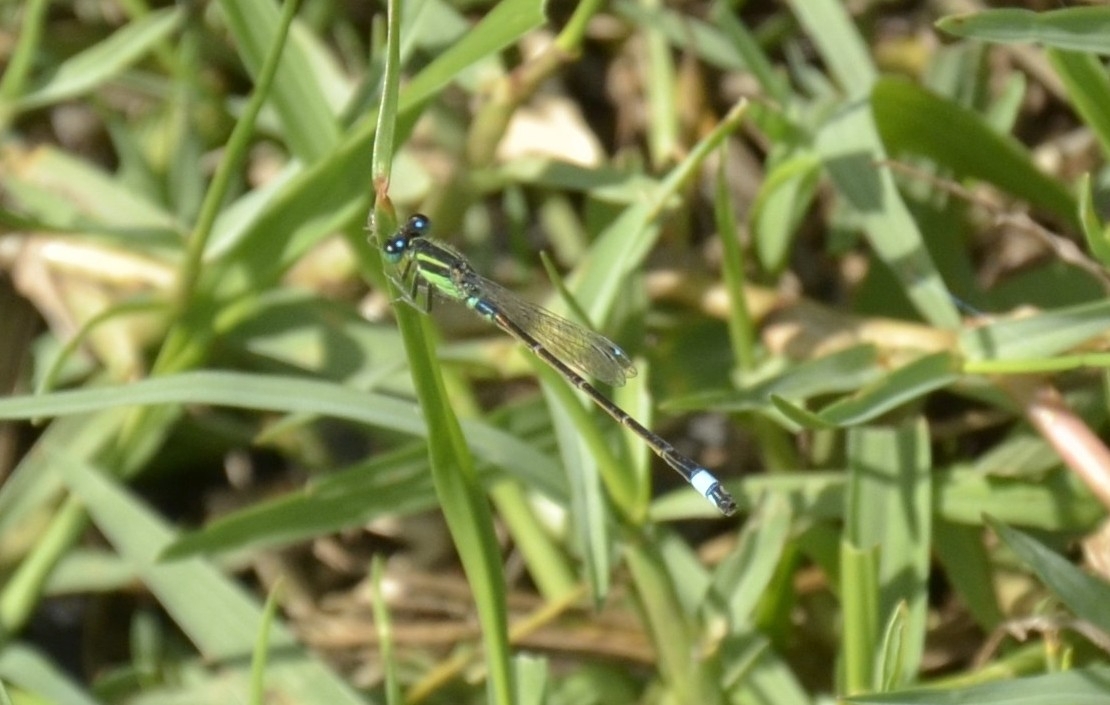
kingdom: Animalia
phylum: Arthropoda
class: Insecta
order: Odonata
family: Coenagrionidae
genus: Ischnura
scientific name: Ischnura senegalensis
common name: Tropical bluetail
